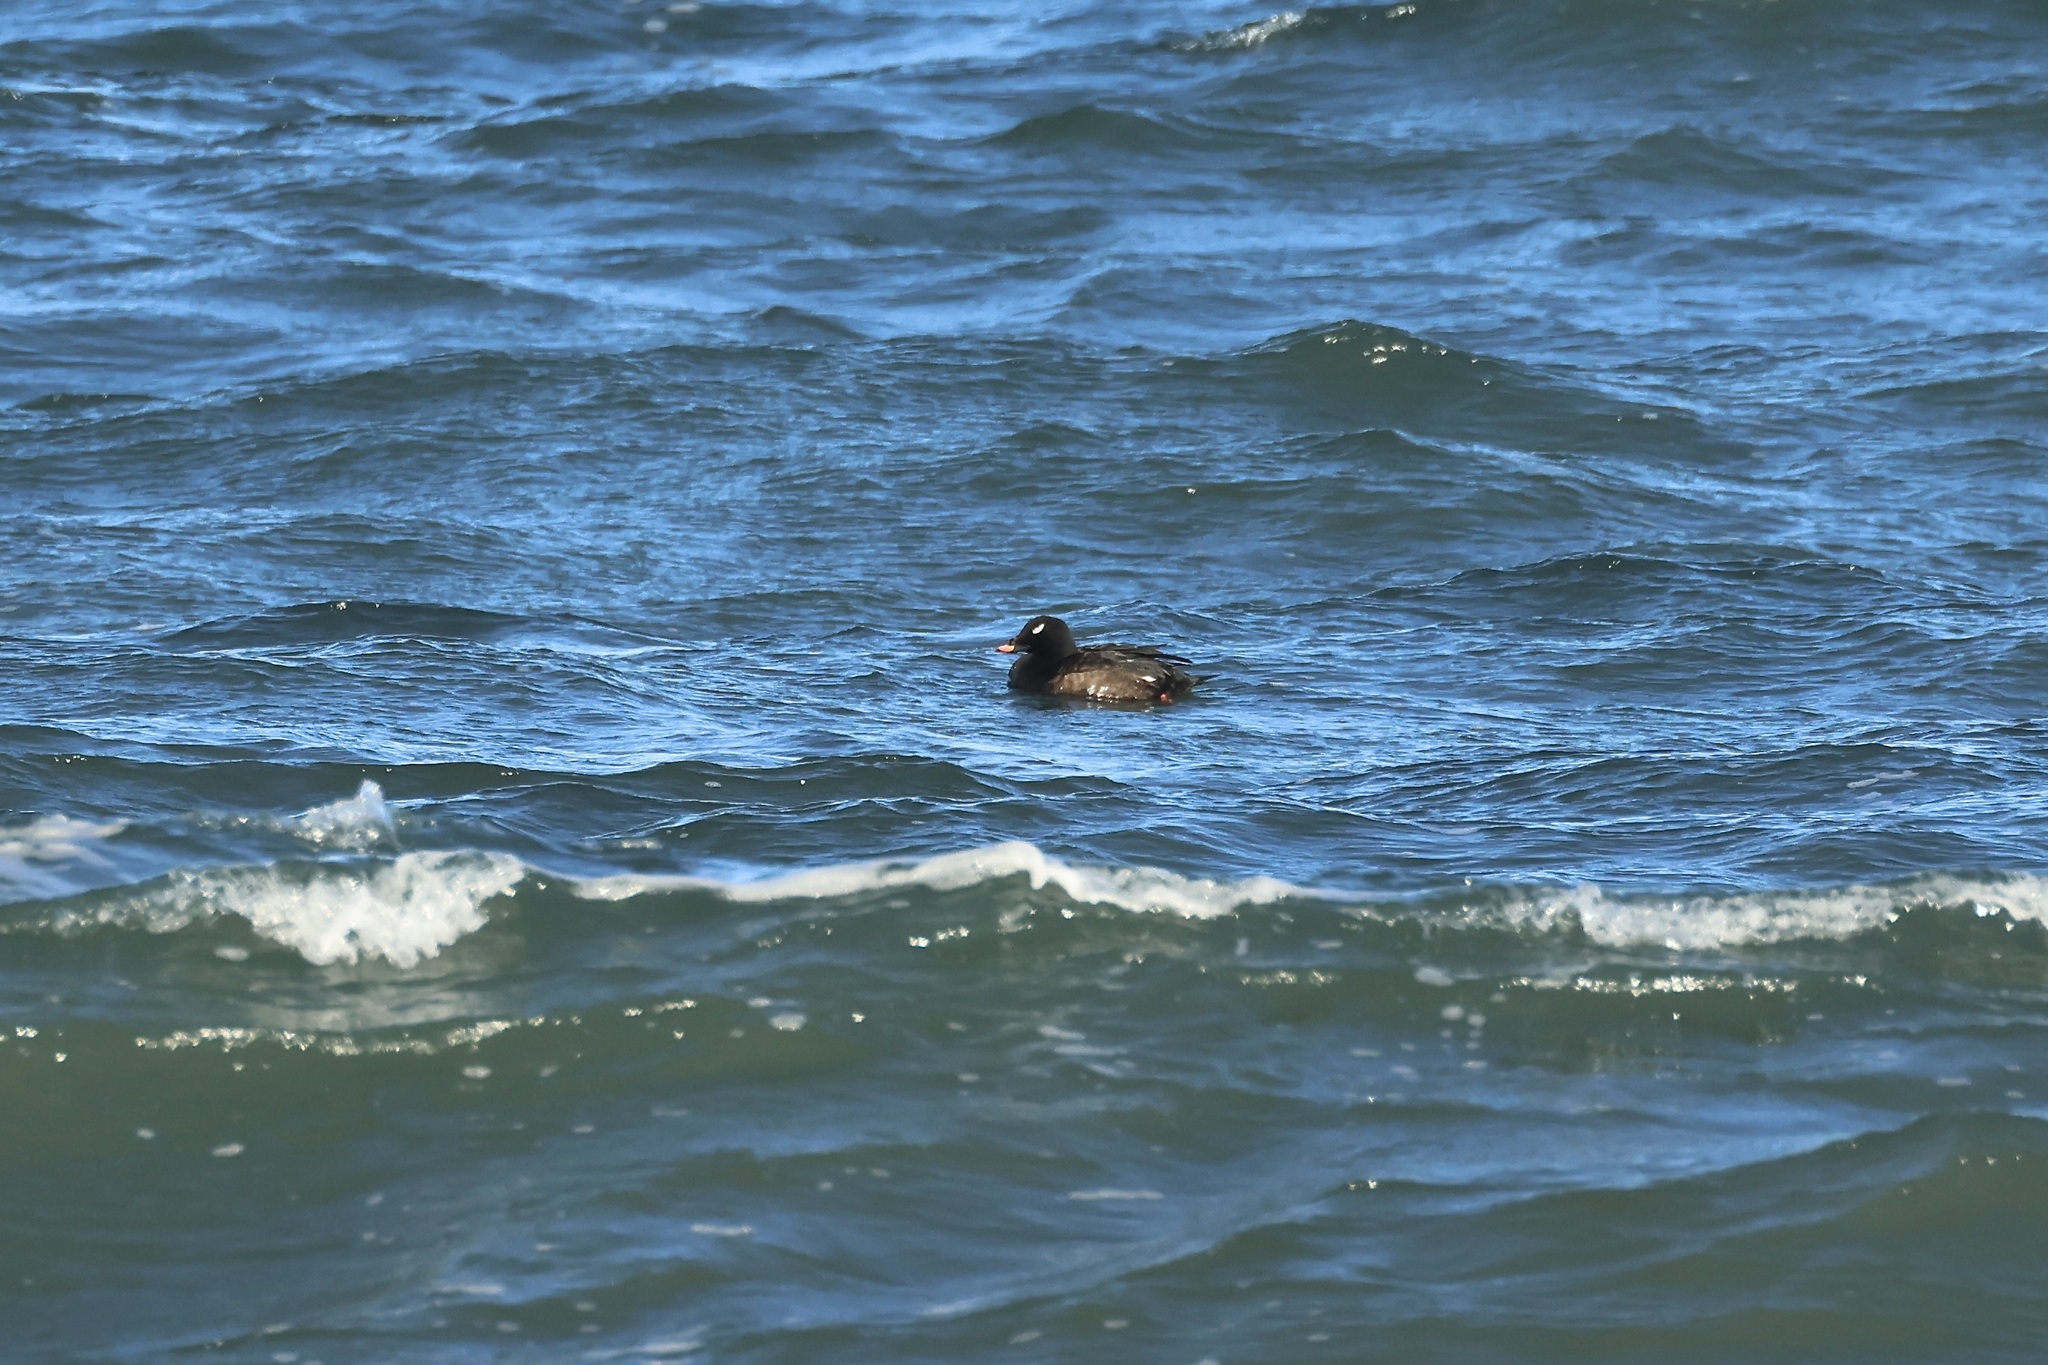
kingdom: Animalia
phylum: Chordata
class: Aves
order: Anseriformes
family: Anatidae
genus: Melanitta
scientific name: Melanitta deglandi
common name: White-winged scoter
